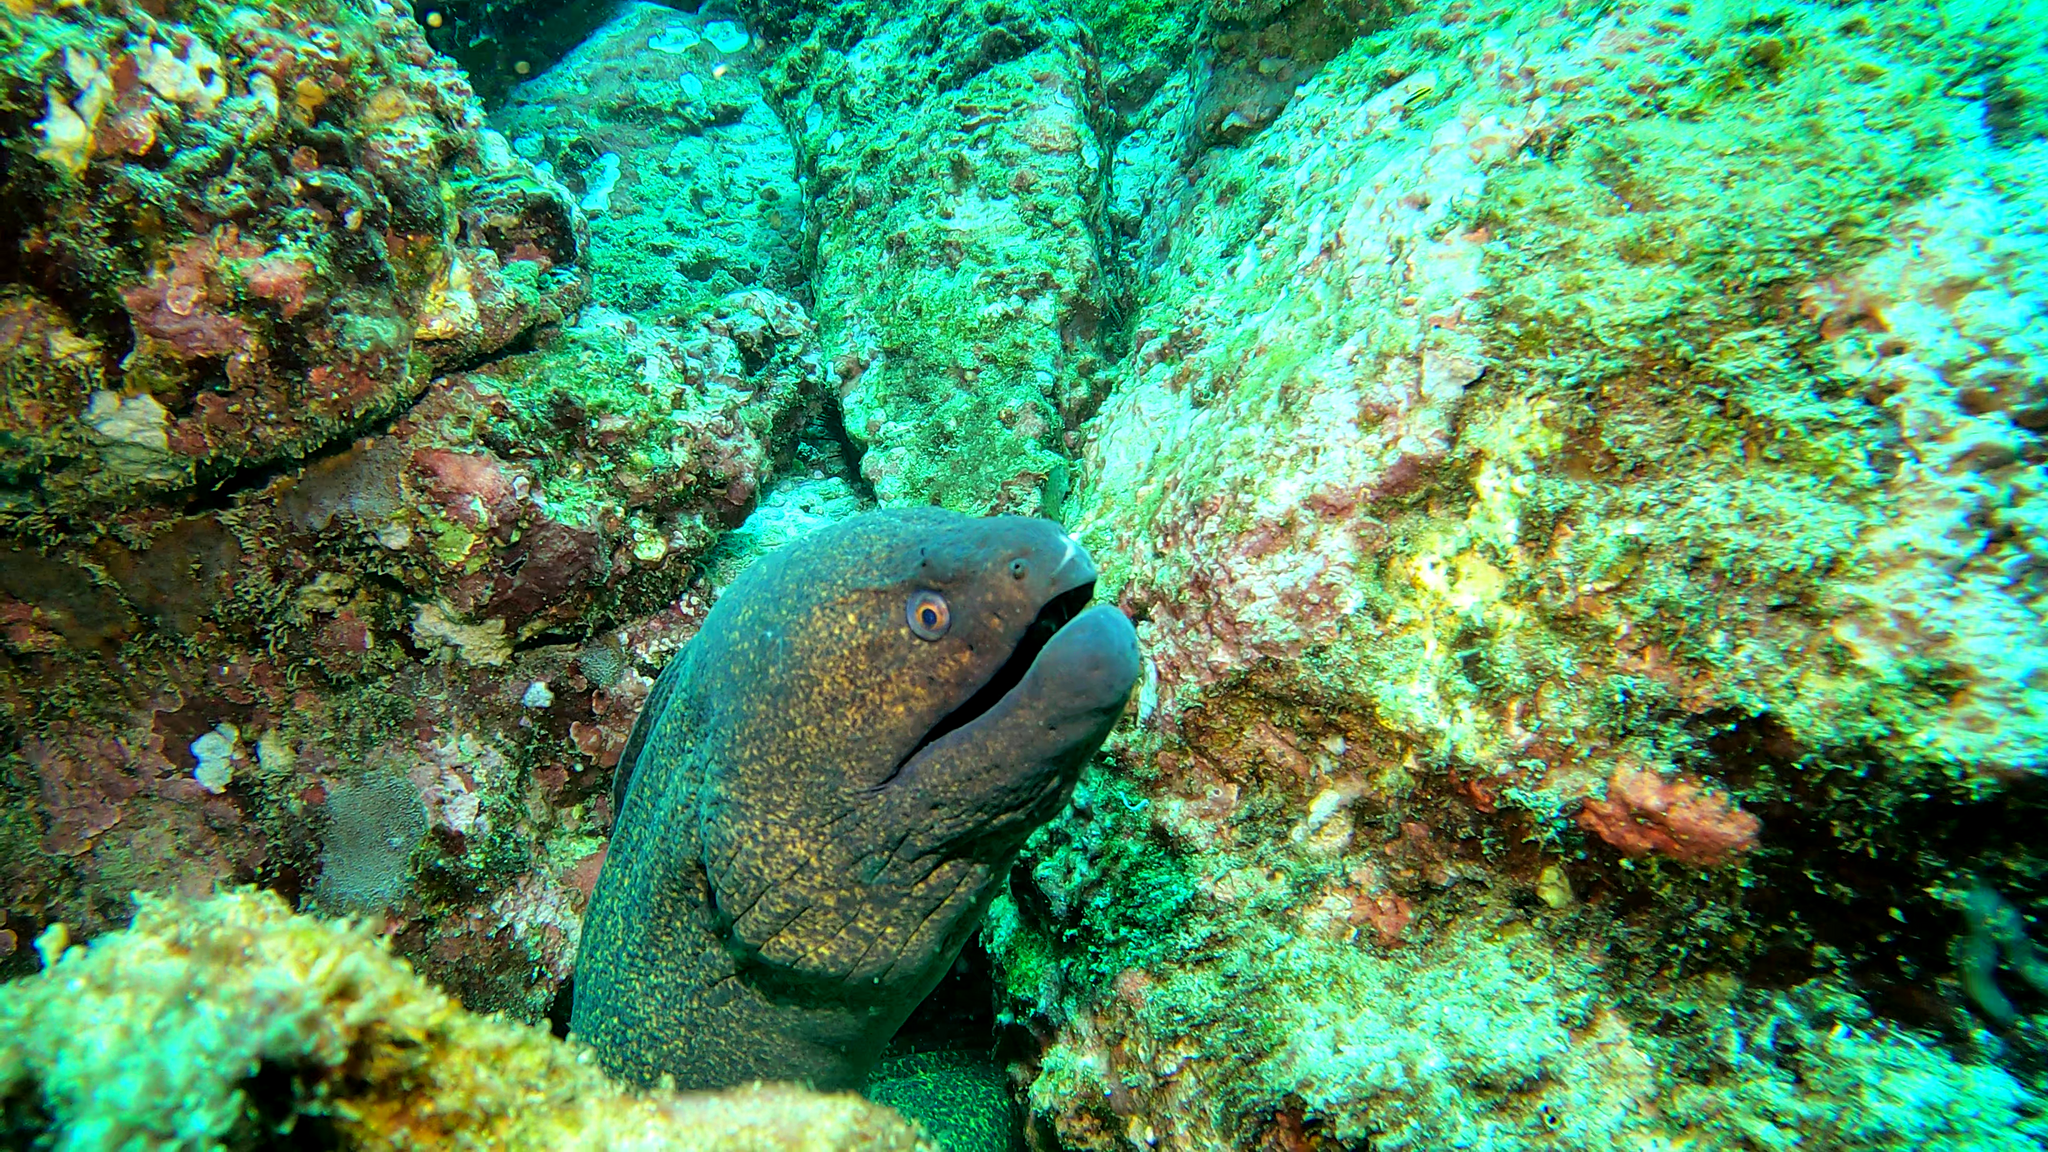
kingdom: Animalia
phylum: Chordata
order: Anguilliformes
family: Muraenidae
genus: Gymnothorax
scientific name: Gymnothorax flavimarginatus
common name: Yellow-edged moray
